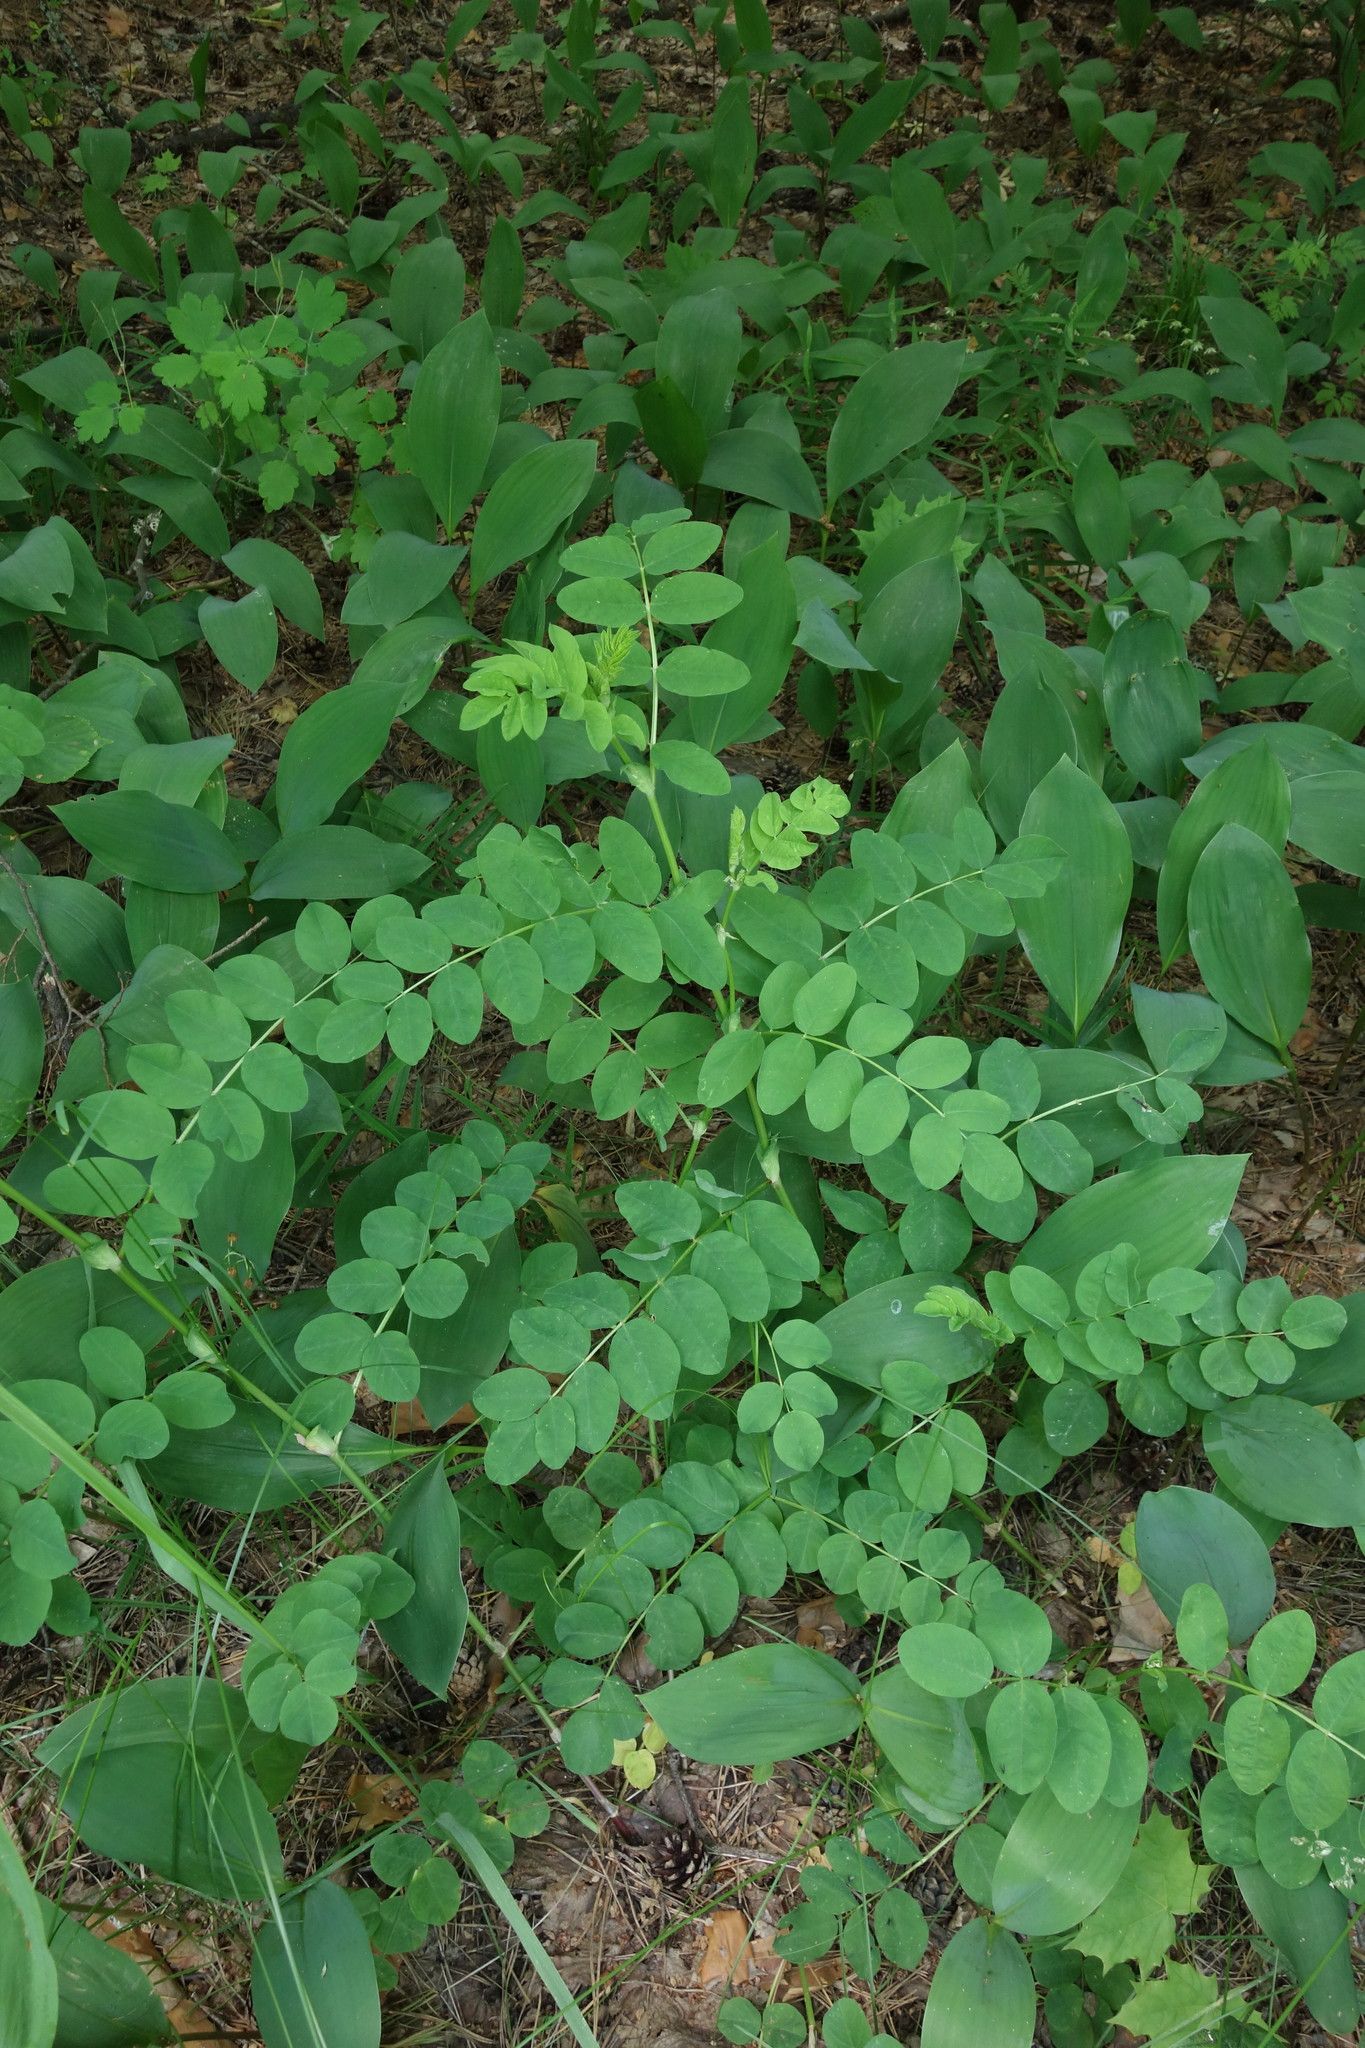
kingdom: Plantae
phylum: Tracheophyta
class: Magnoliopsida
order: Fabales
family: Fabaceae
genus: Astragalus
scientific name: Astragalus glycyphyllos
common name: Wild liquorice
